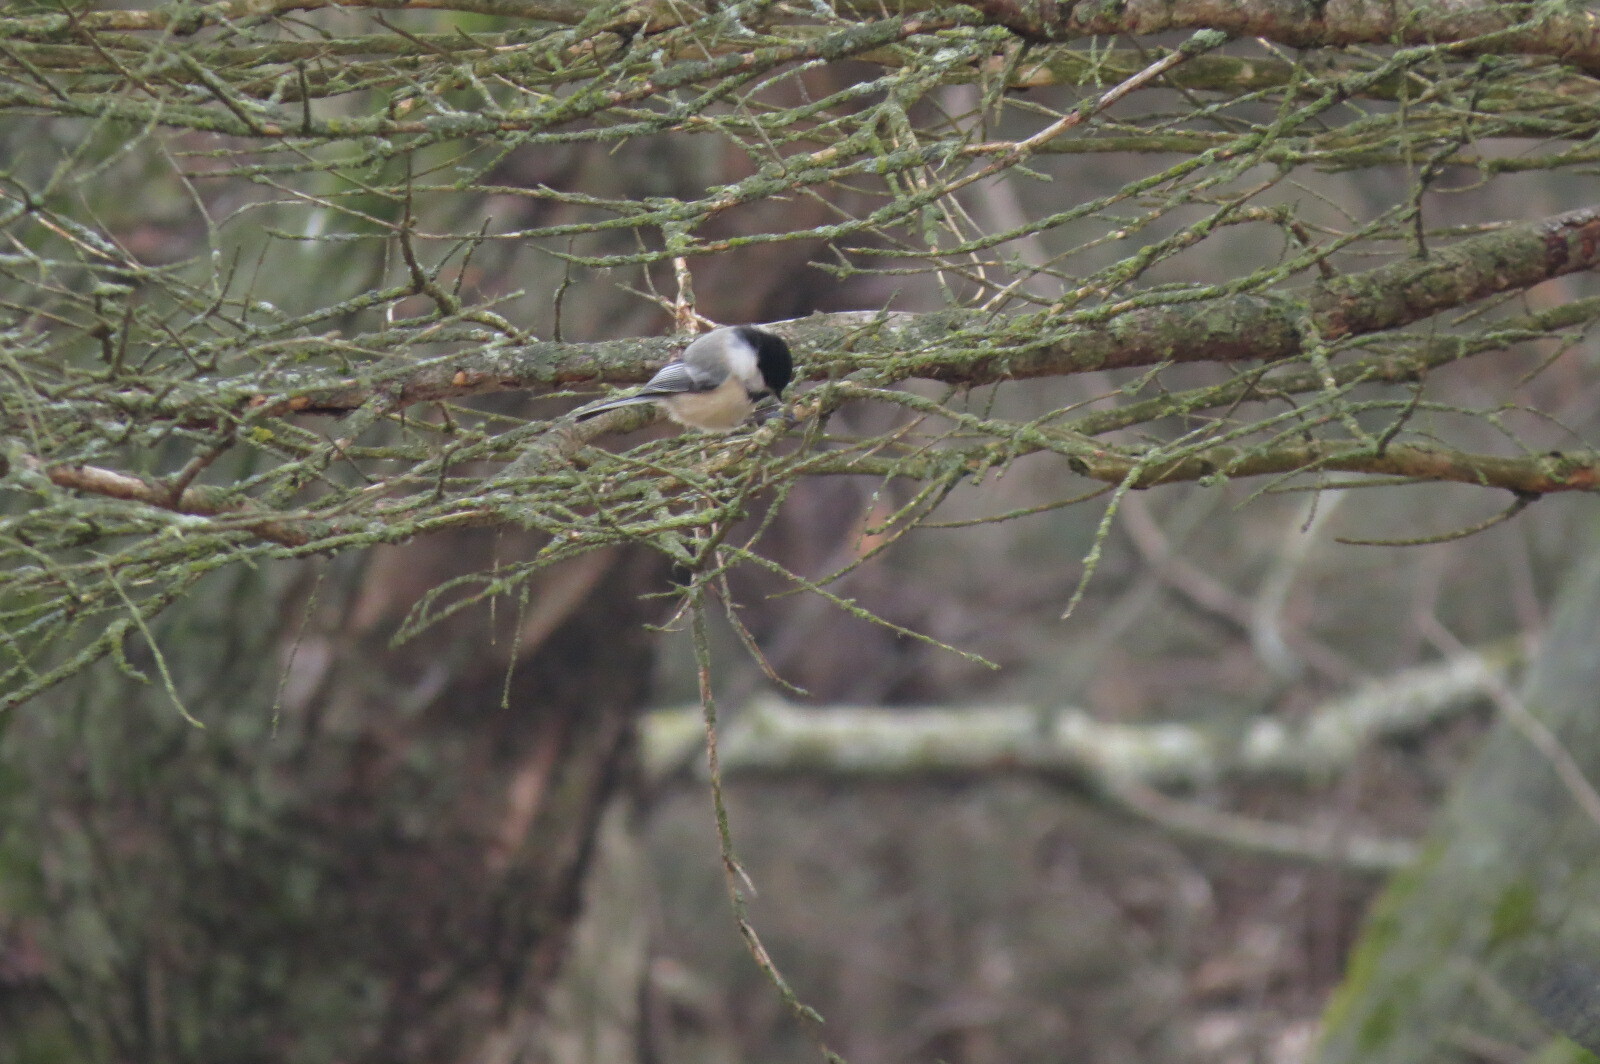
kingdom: Animalia
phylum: Chordata
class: Aves
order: Passeriformes
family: Paridae
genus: Poecile
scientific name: Poecile atricapillus
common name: Black-capped chickadee
